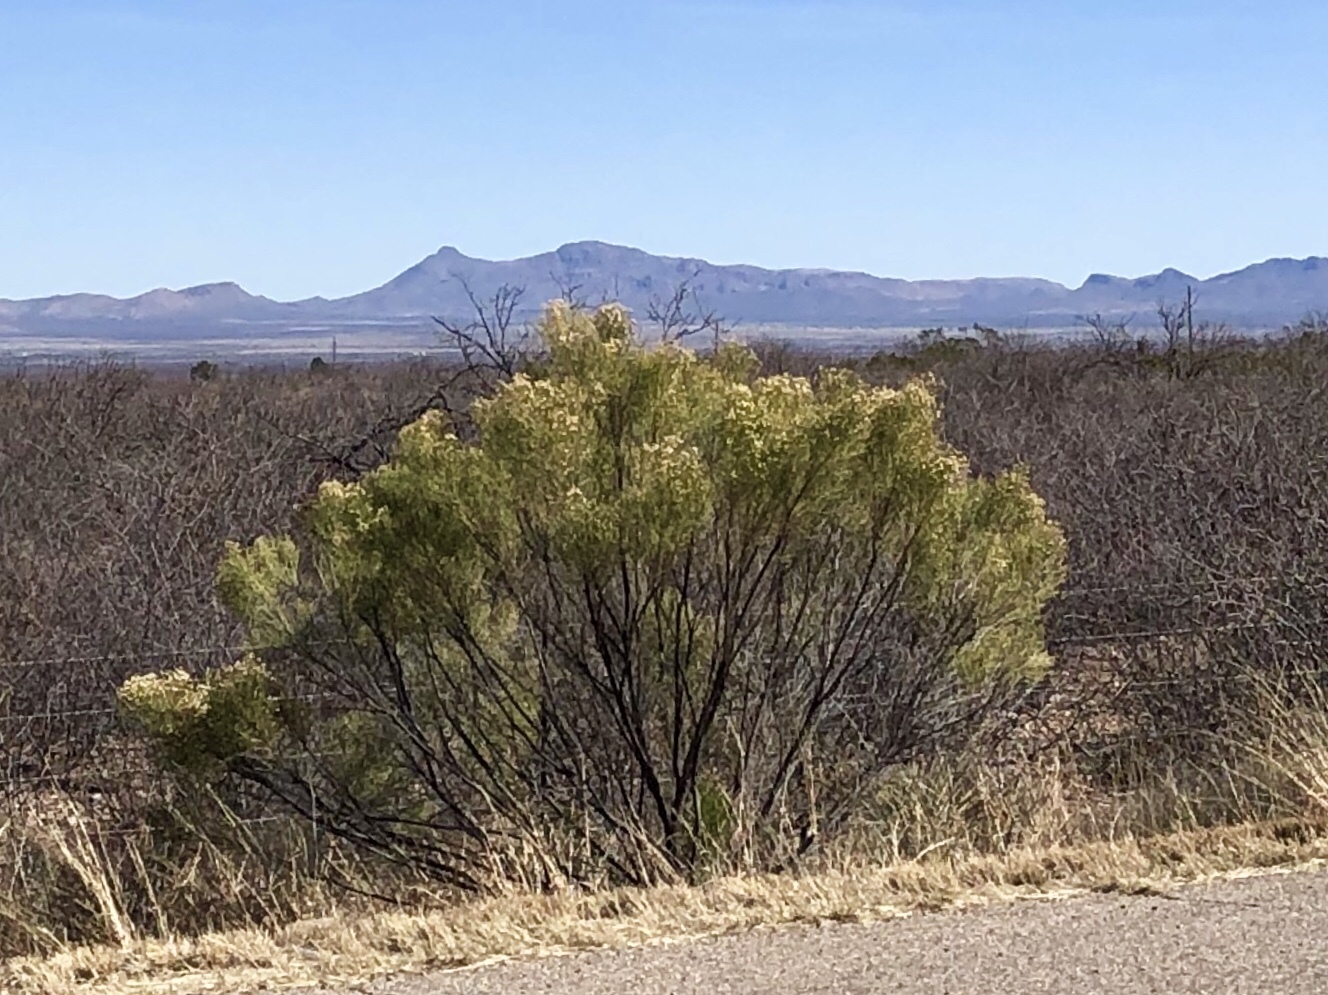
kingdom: Plantae
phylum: Tracheophyta
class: Magnoliopsida
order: Asterales
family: Asteraceae
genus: Baccharis
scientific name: Baccharis sarothroides
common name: Desert-broom
